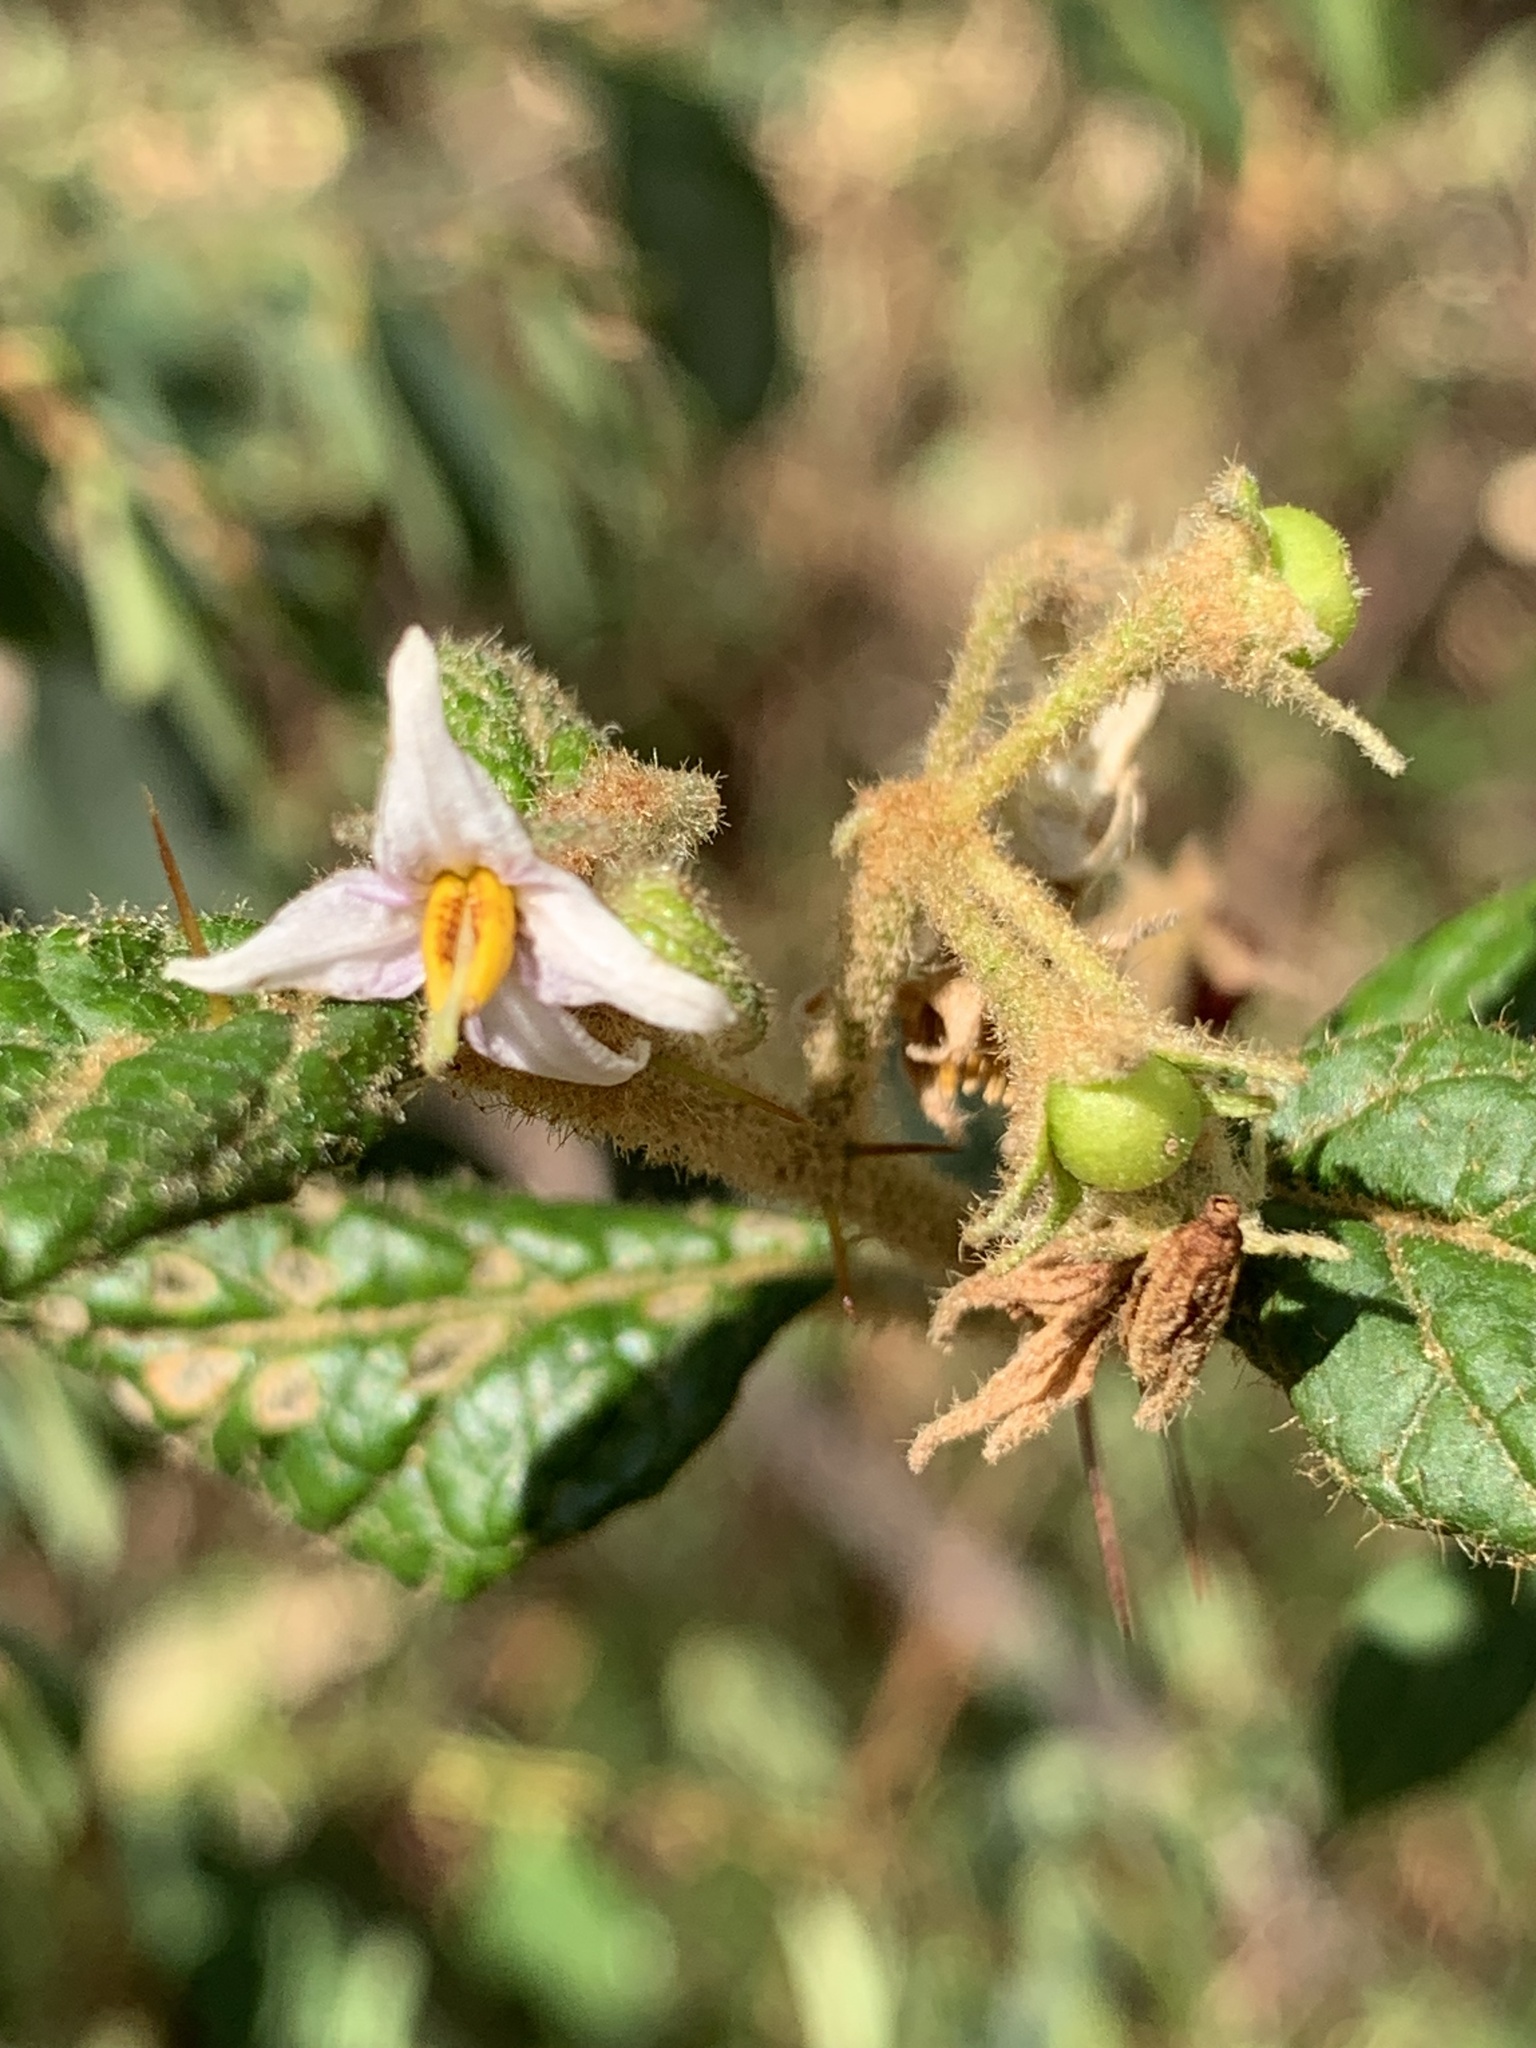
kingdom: Plantae
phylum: Tracheophyta
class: Magnoliopsida
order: Solanales
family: Solanaceae
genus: Solanum
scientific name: Solanum stelligerum
